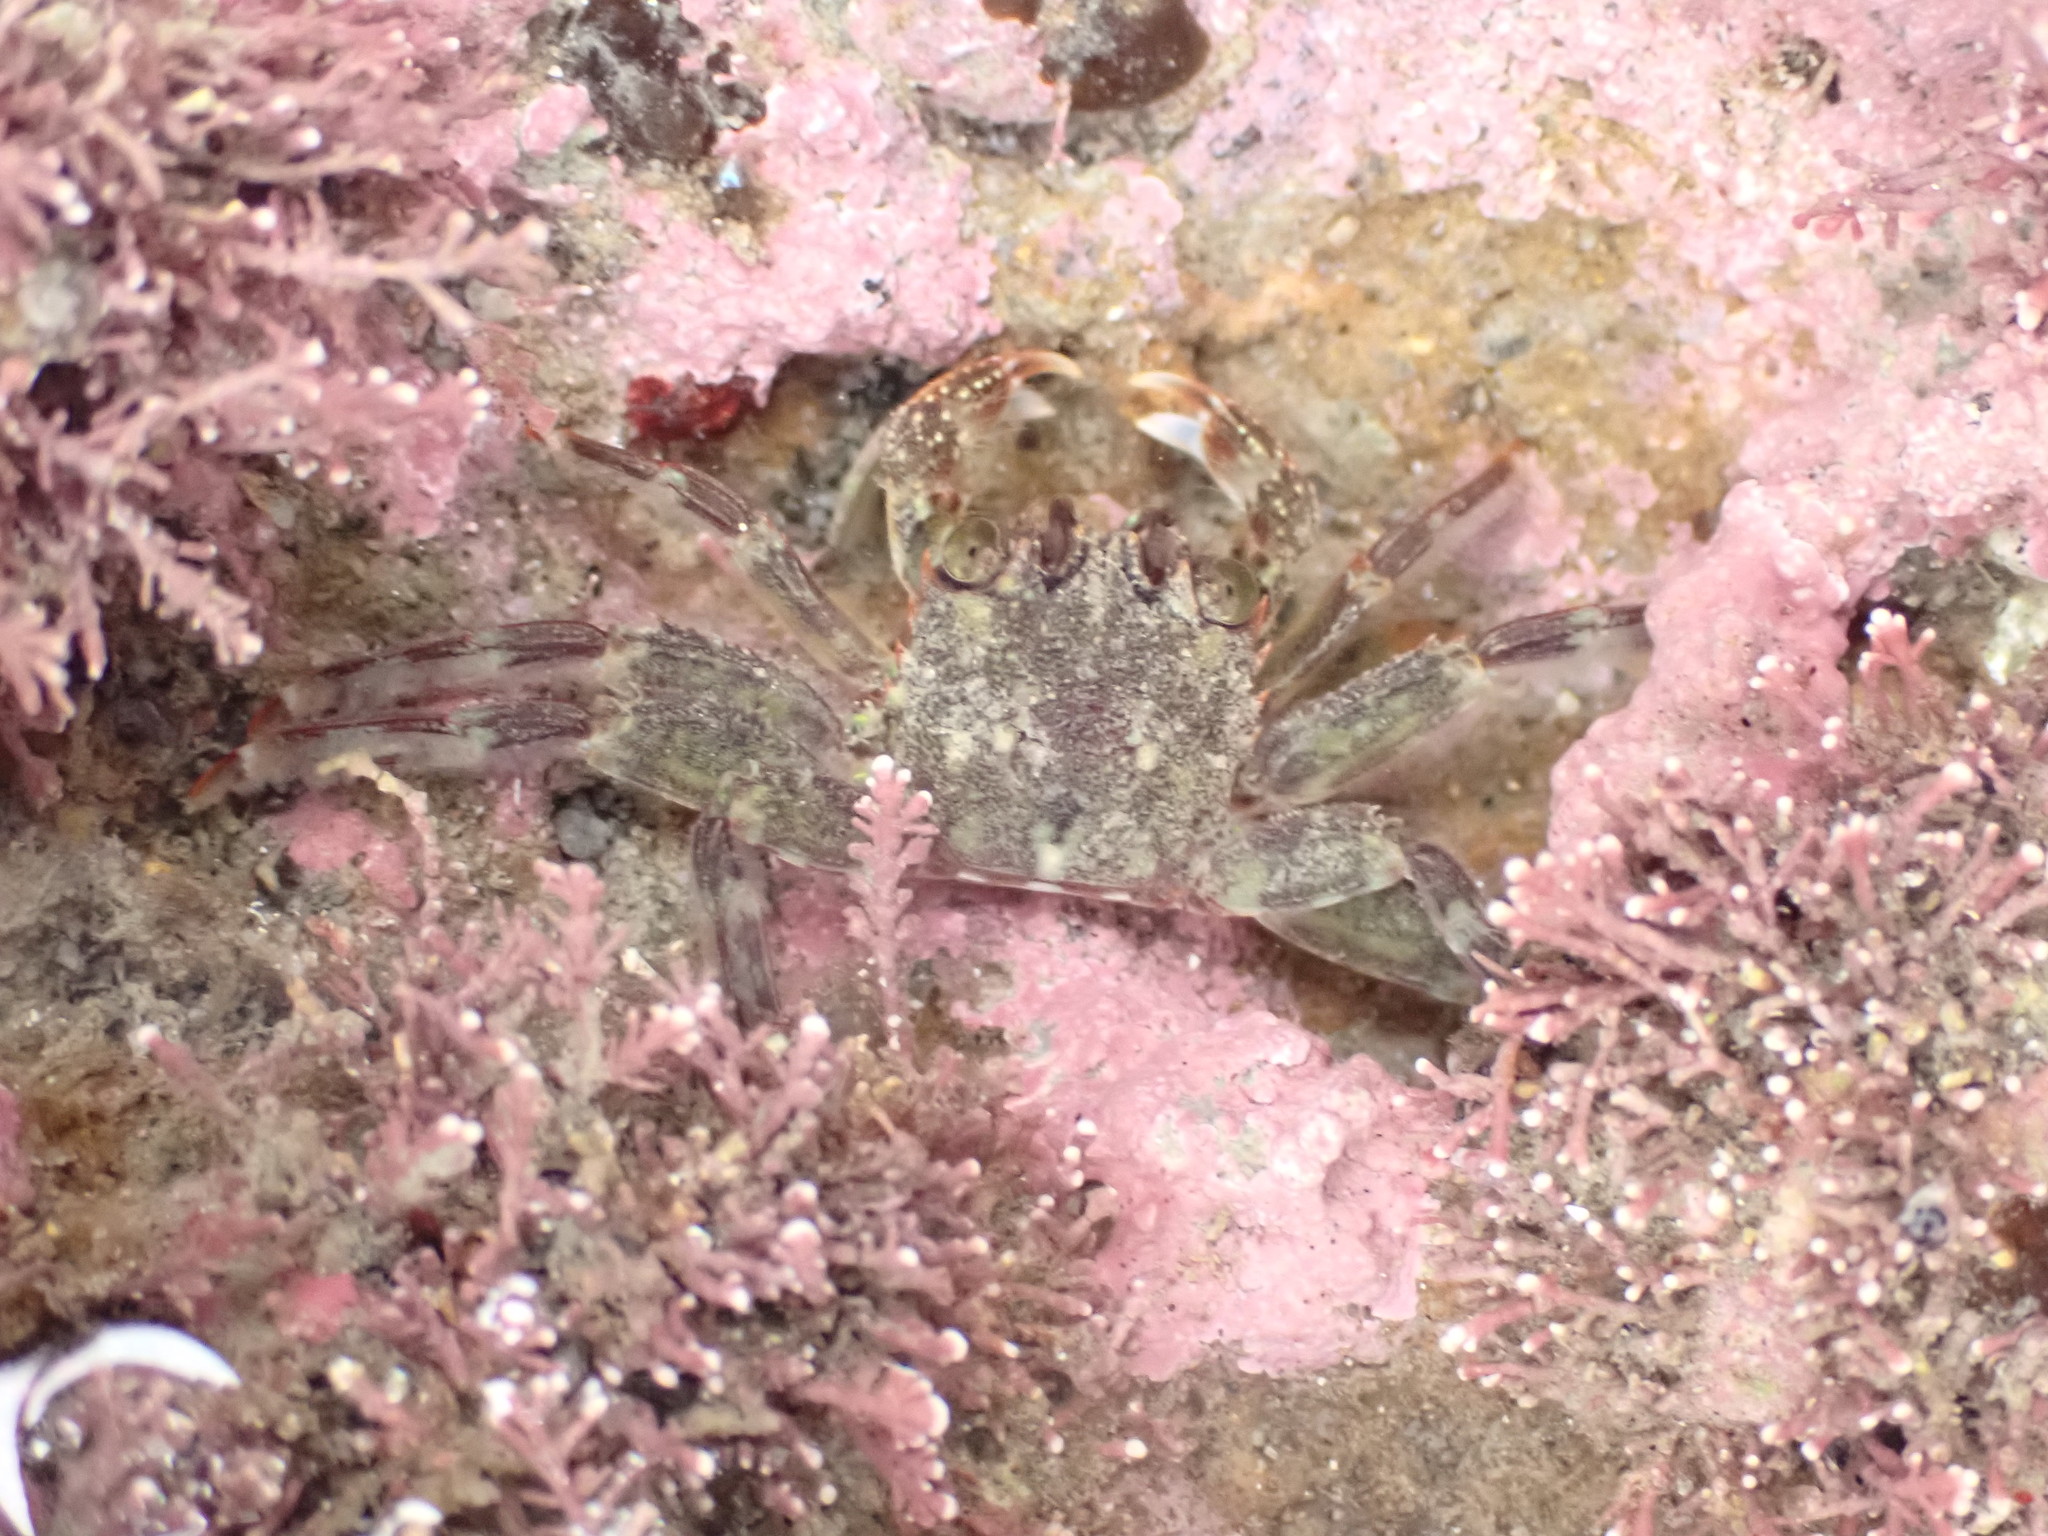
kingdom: Animalia
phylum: Arthropoda
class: Malacostraca
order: Decapoda
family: Plagusiidae
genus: Guinusia
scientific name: Guinusia chabrus
